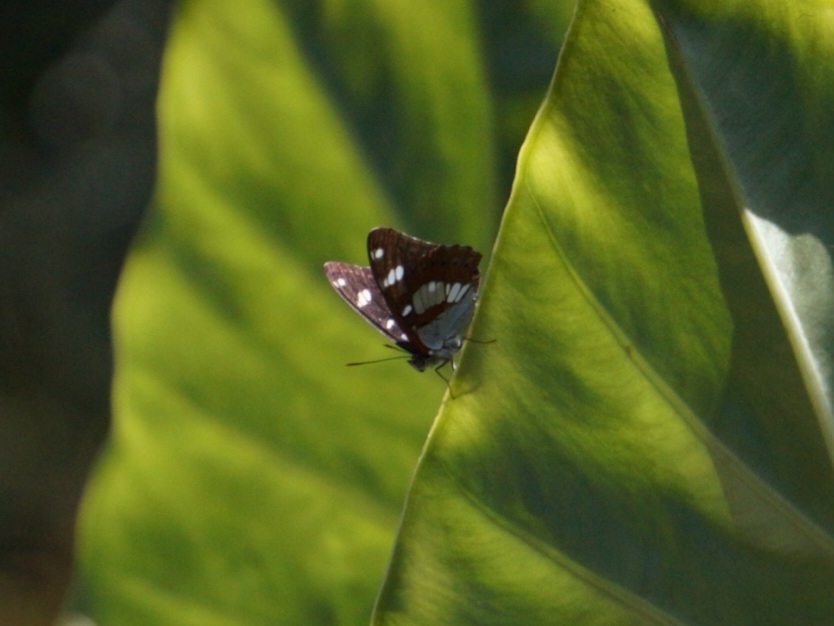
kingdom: Animalia
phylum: Arthropoda
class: Insecta
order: Lepidoptera
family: Nymphalidae
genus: Limenitis
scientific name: Limenitis reducta
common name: Southern white admiral
